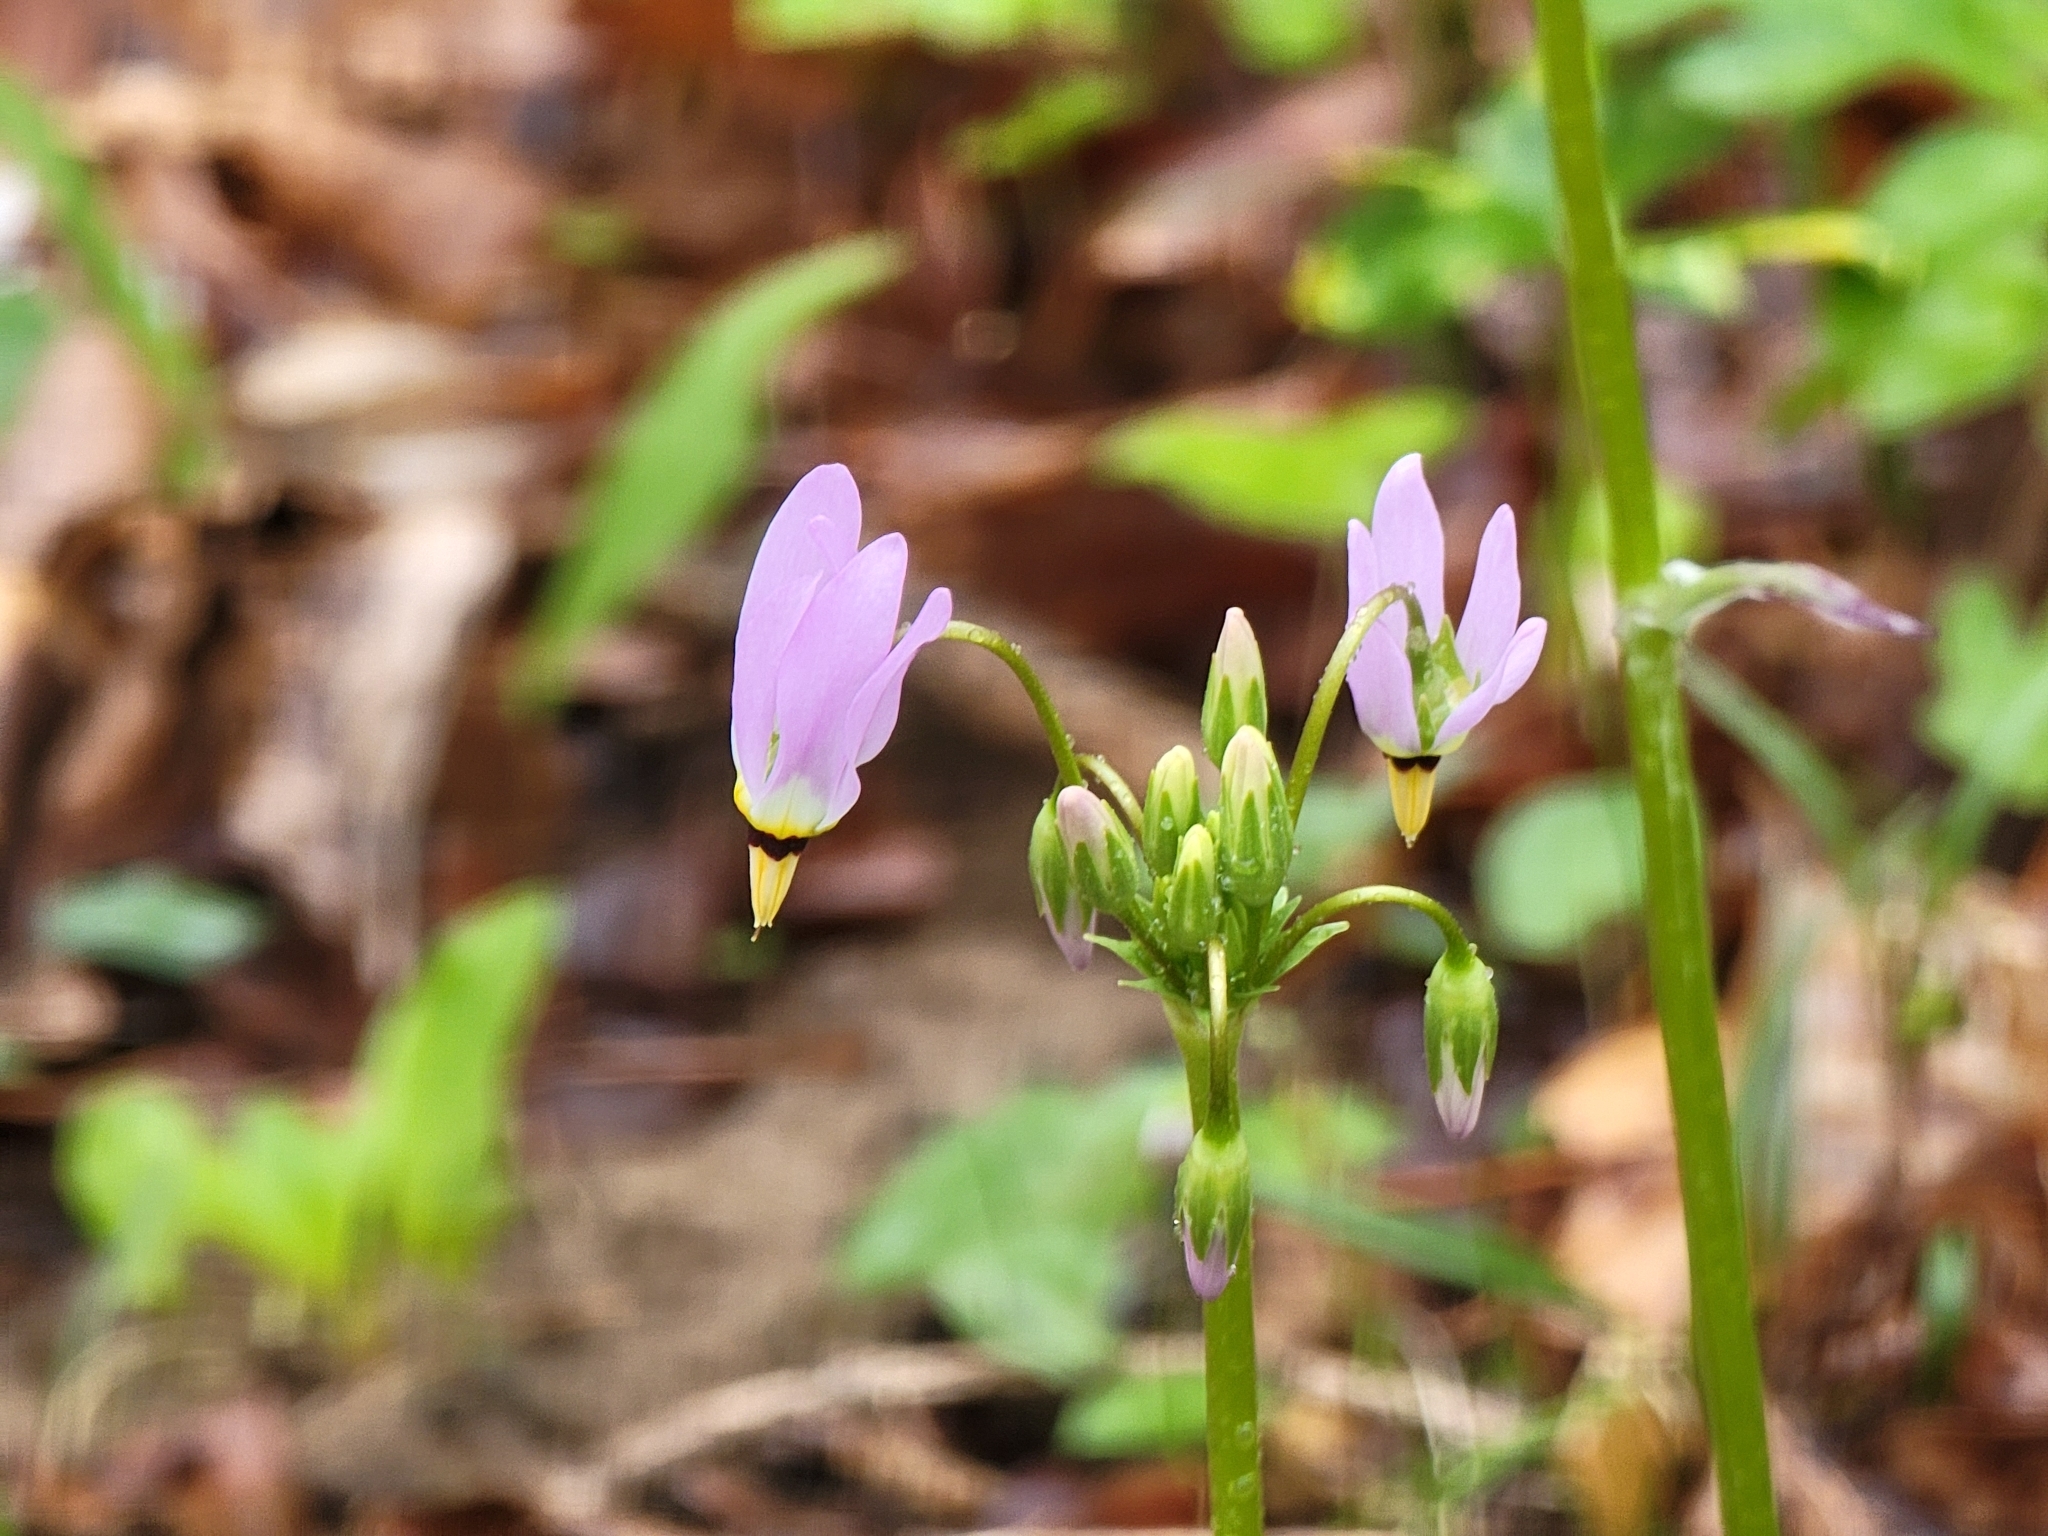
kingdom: Plantae
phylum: Tracheophyta
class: Magnoliopsida
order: Ericales
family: Primulaceae
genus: Dodecatheon
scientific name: Dodecatheon meadia
